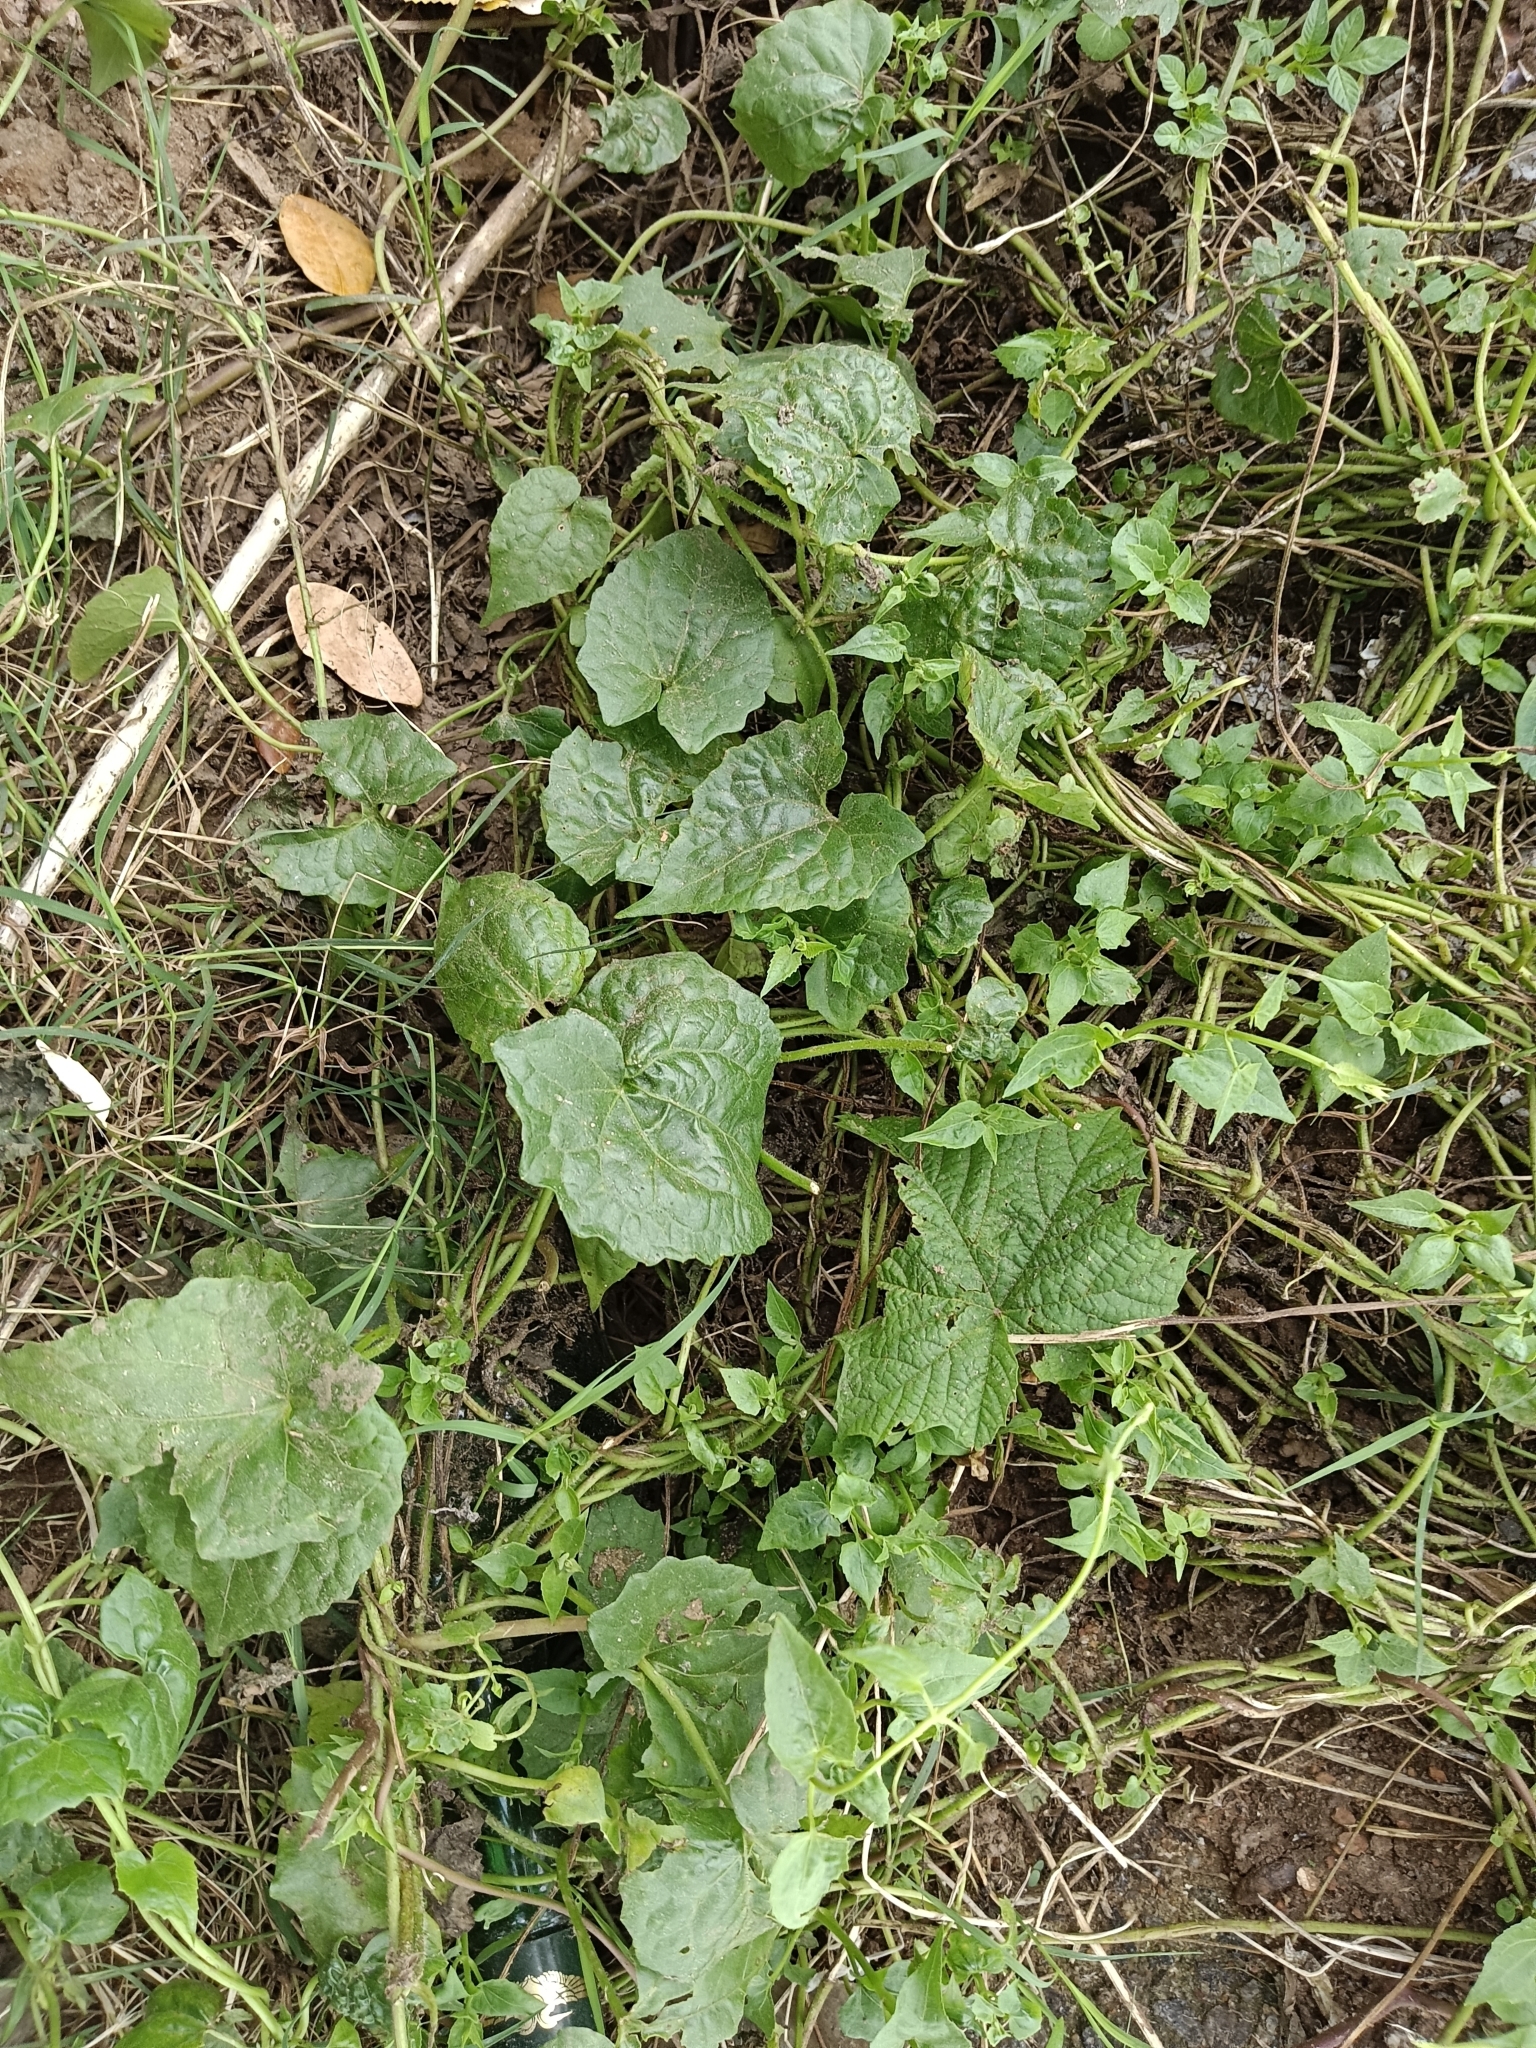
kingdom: Plantae
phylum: Tracheophyta
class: Magnoliopsida
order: Asterales
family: Asteraceae
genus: Mikania
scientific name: Mikania micrantha
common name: Mile-a-minute
